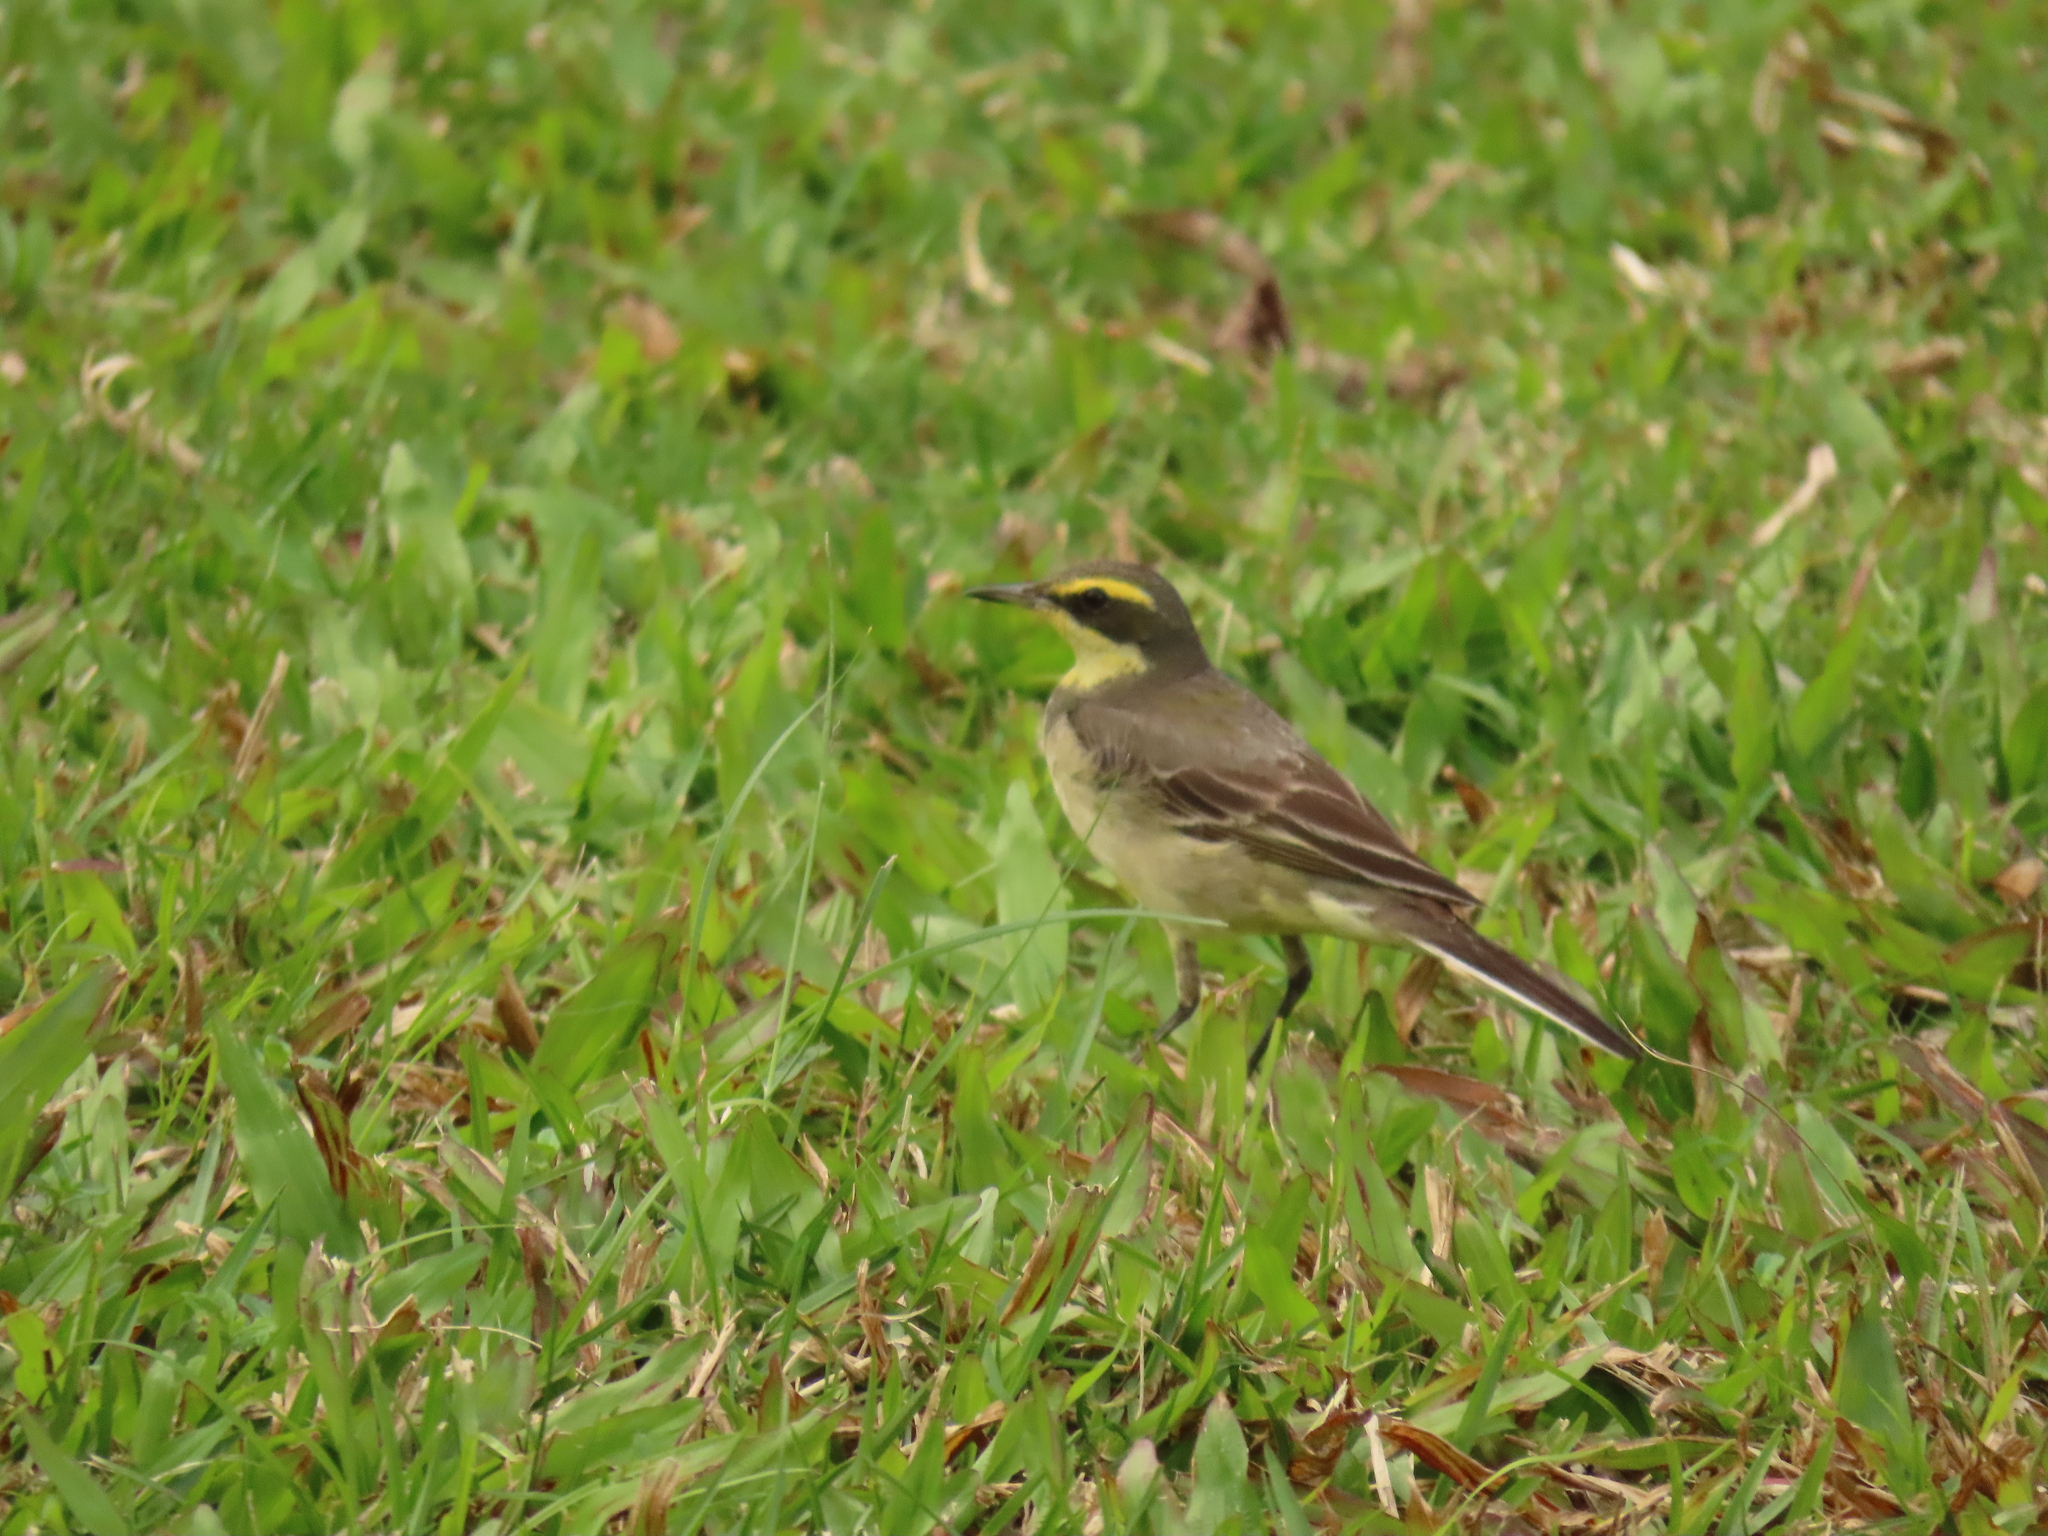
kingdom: Animalia
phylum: Chordata
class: Aves
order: Passeriformes
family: Motacillidae
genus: Motacilla
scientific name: Motacilla tschutschensis
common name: Eastern yellow wagtail
